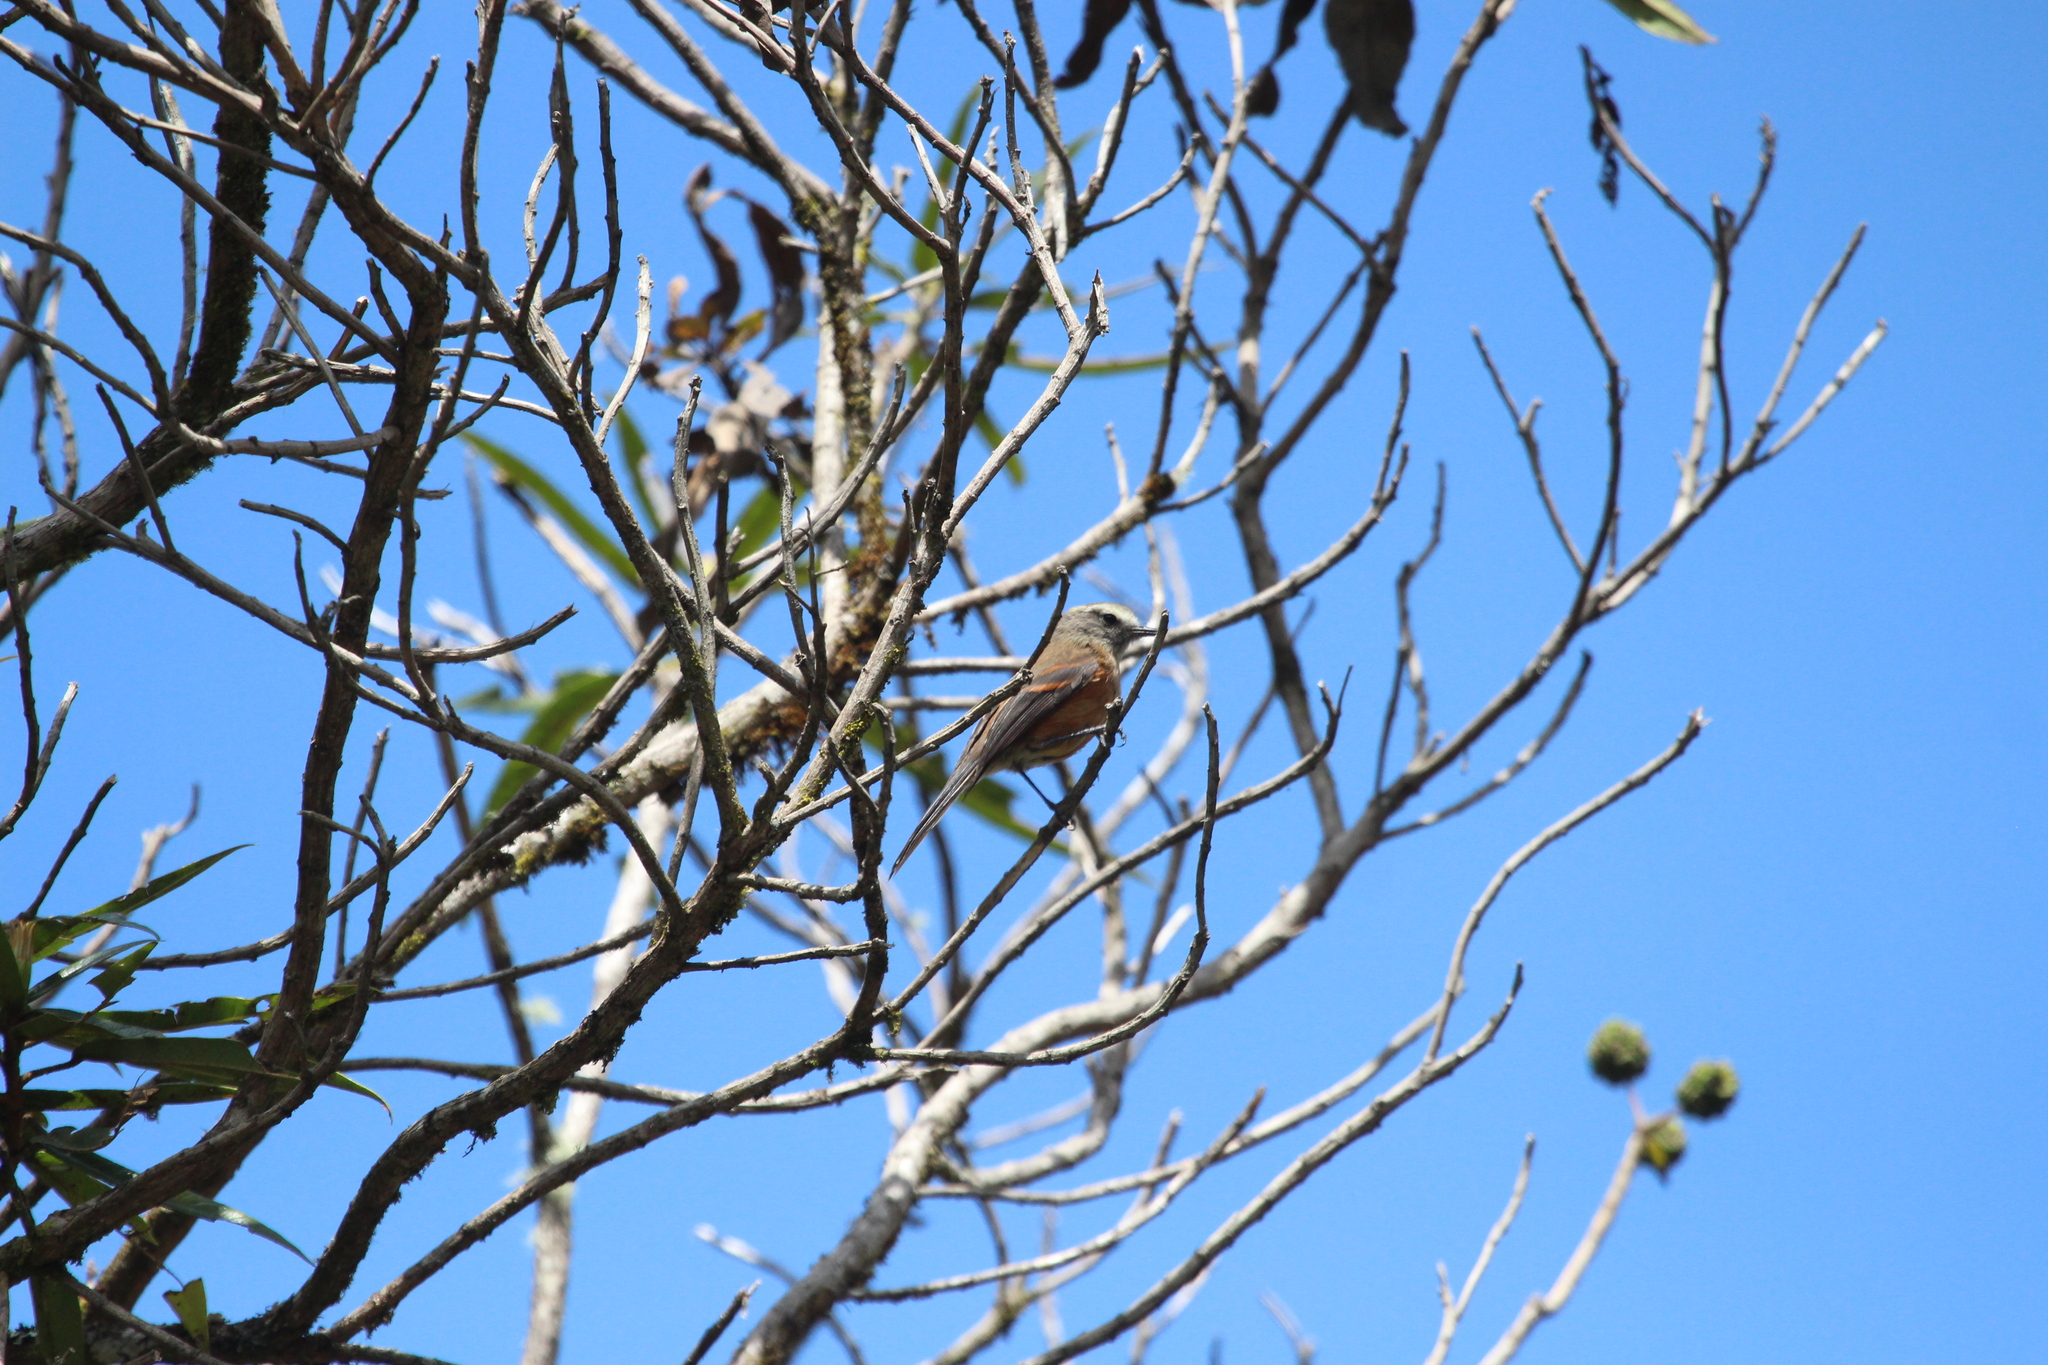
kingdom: Animalia
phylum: Chordata
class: Aves
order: Passeriformes
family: Tyrannidae
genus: Ochthoeca
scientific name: Ochthoeca fumicolor
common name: Brown-backed chat-tyrant
